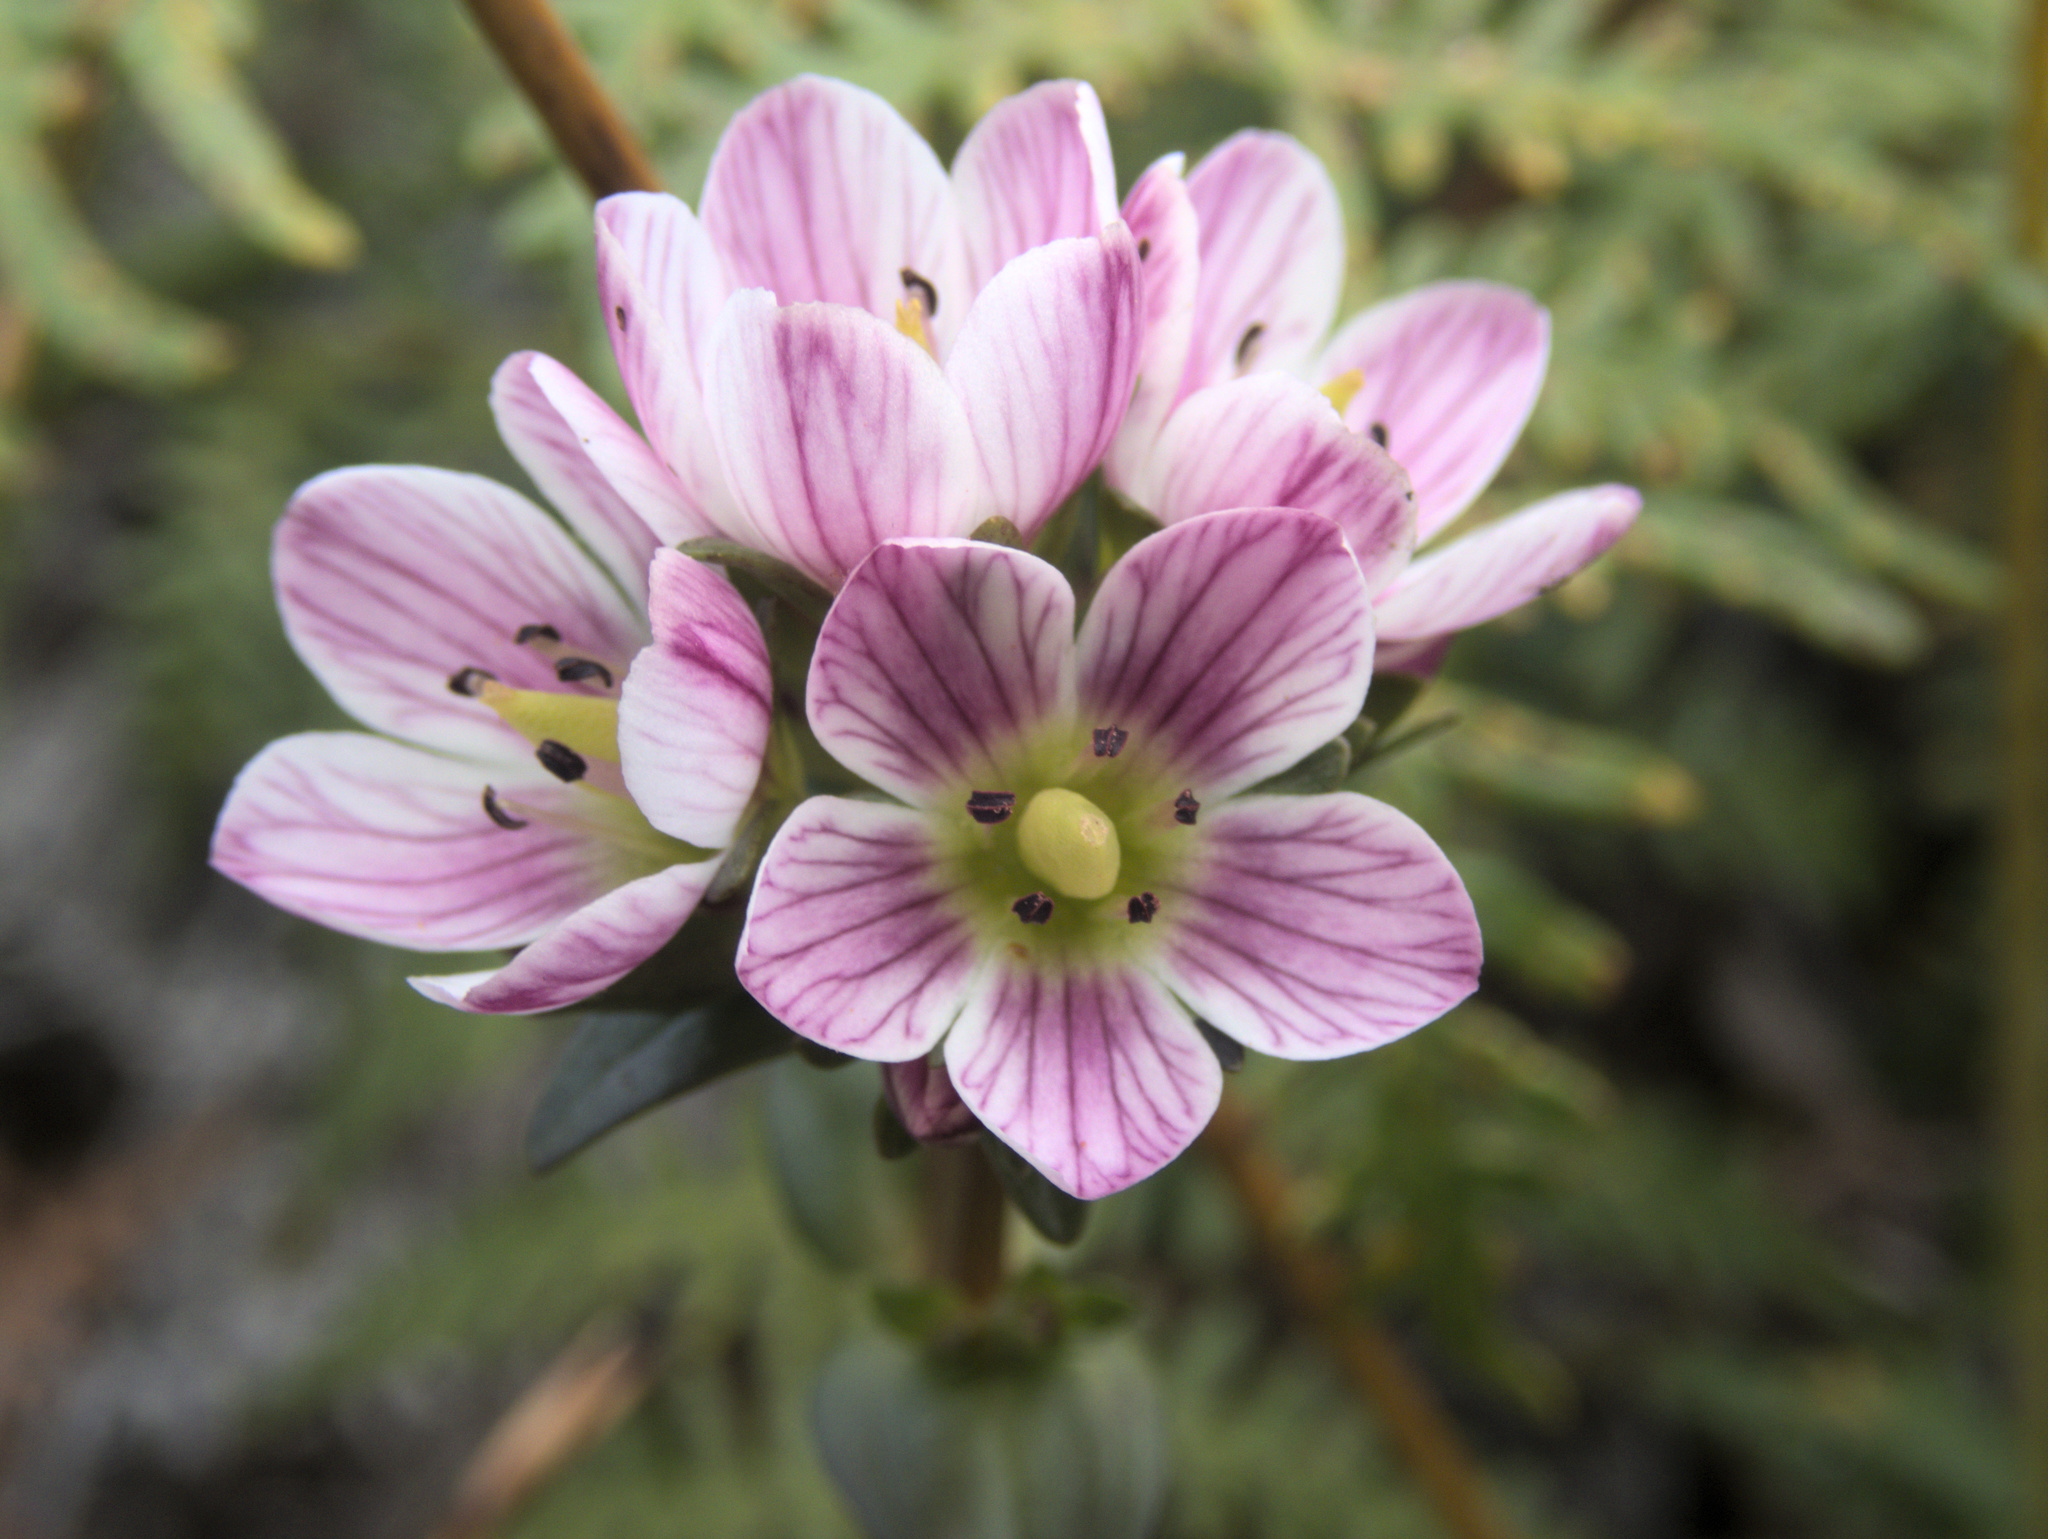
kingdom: Plantae
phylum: Tracheophyta
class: Magnoliopsida
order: Gentianales
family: Gentianaceae
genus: Gentianella
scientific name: Gentianella chathamica
